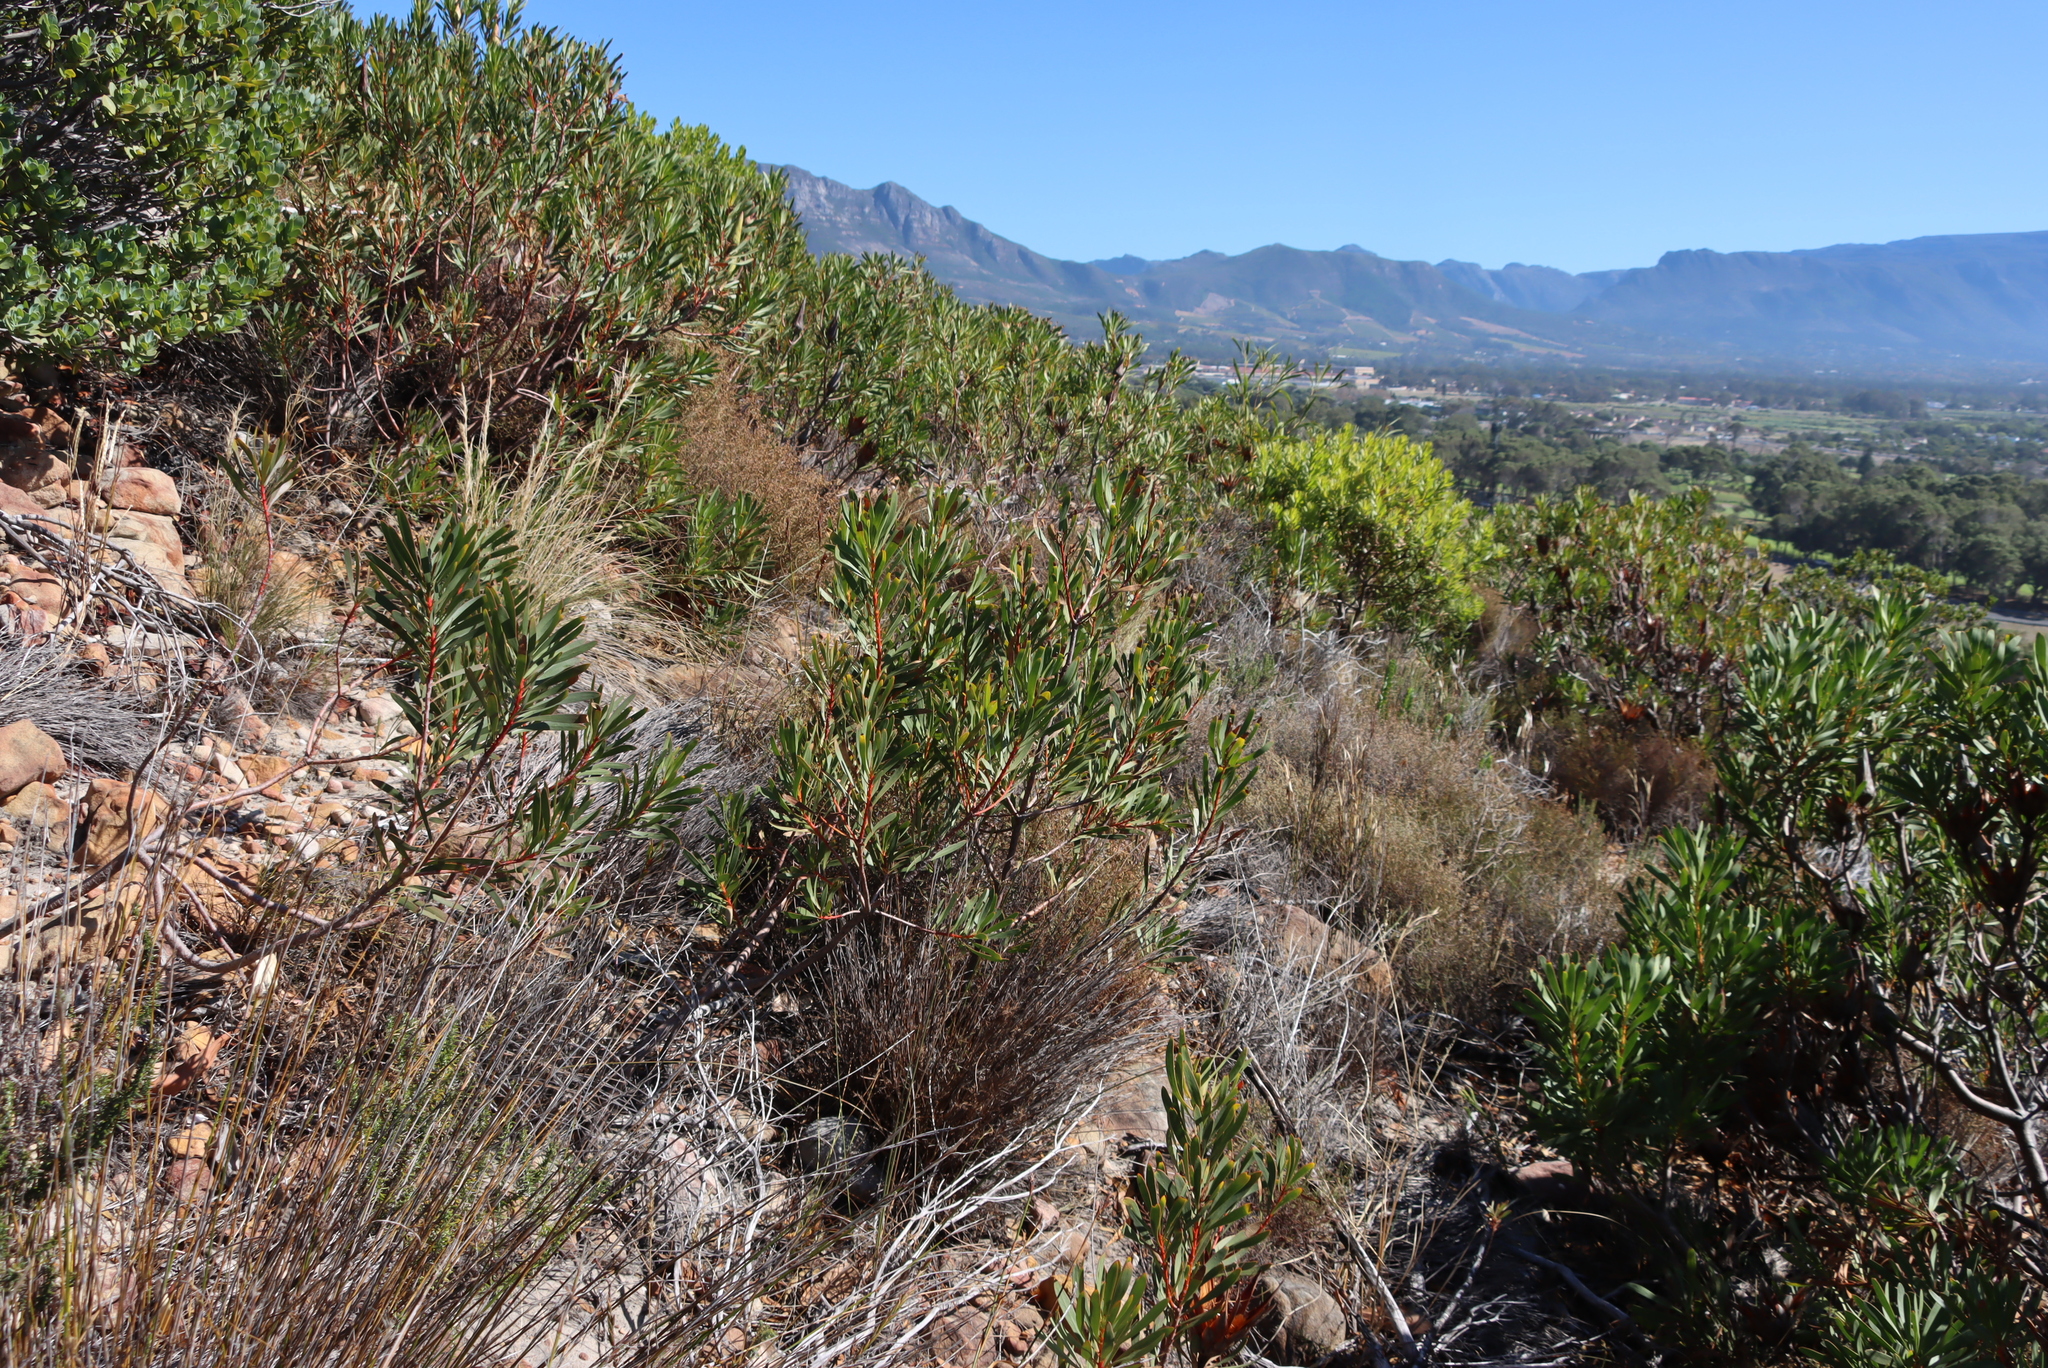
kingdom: Plantae
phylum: Tracheophyta
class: Magnoliopsida
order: Proteales
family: Proteaceae
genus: Protea
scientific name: Protea repens
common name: Sugarbush
